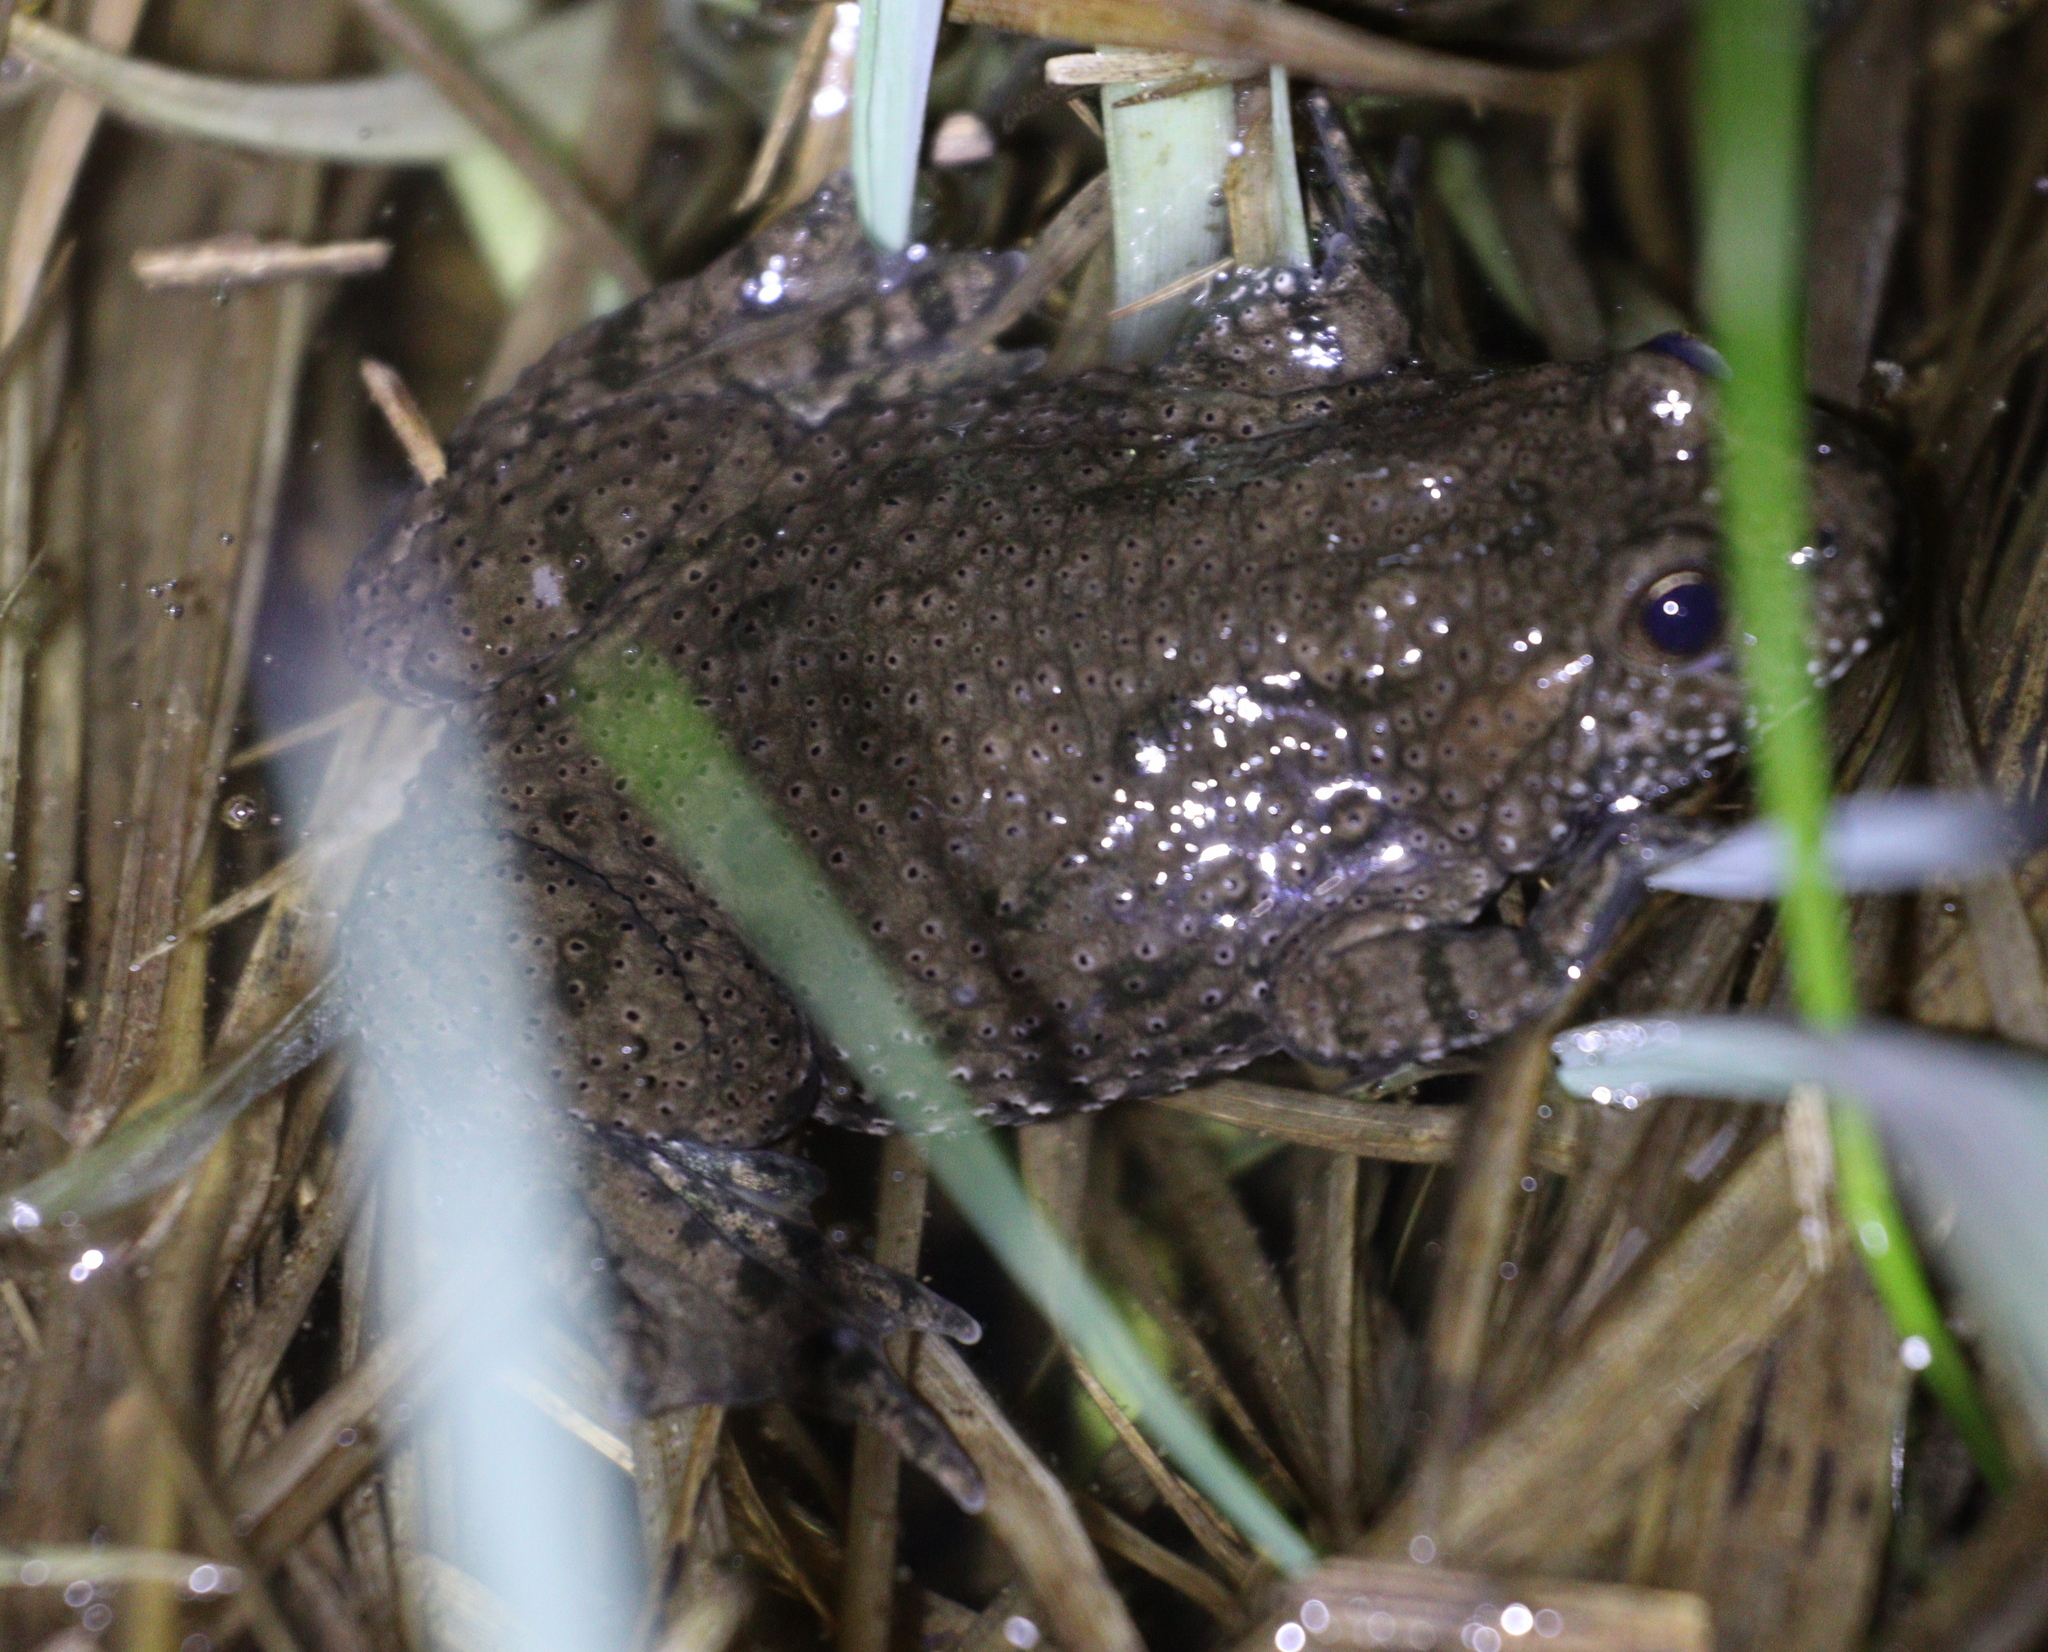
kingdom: Animalia
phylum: Chordata
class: Amphibia
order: Anura
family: Bombinatoridae
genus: Bombina
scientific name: Bombina bombina
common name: Fire-bellied toad
